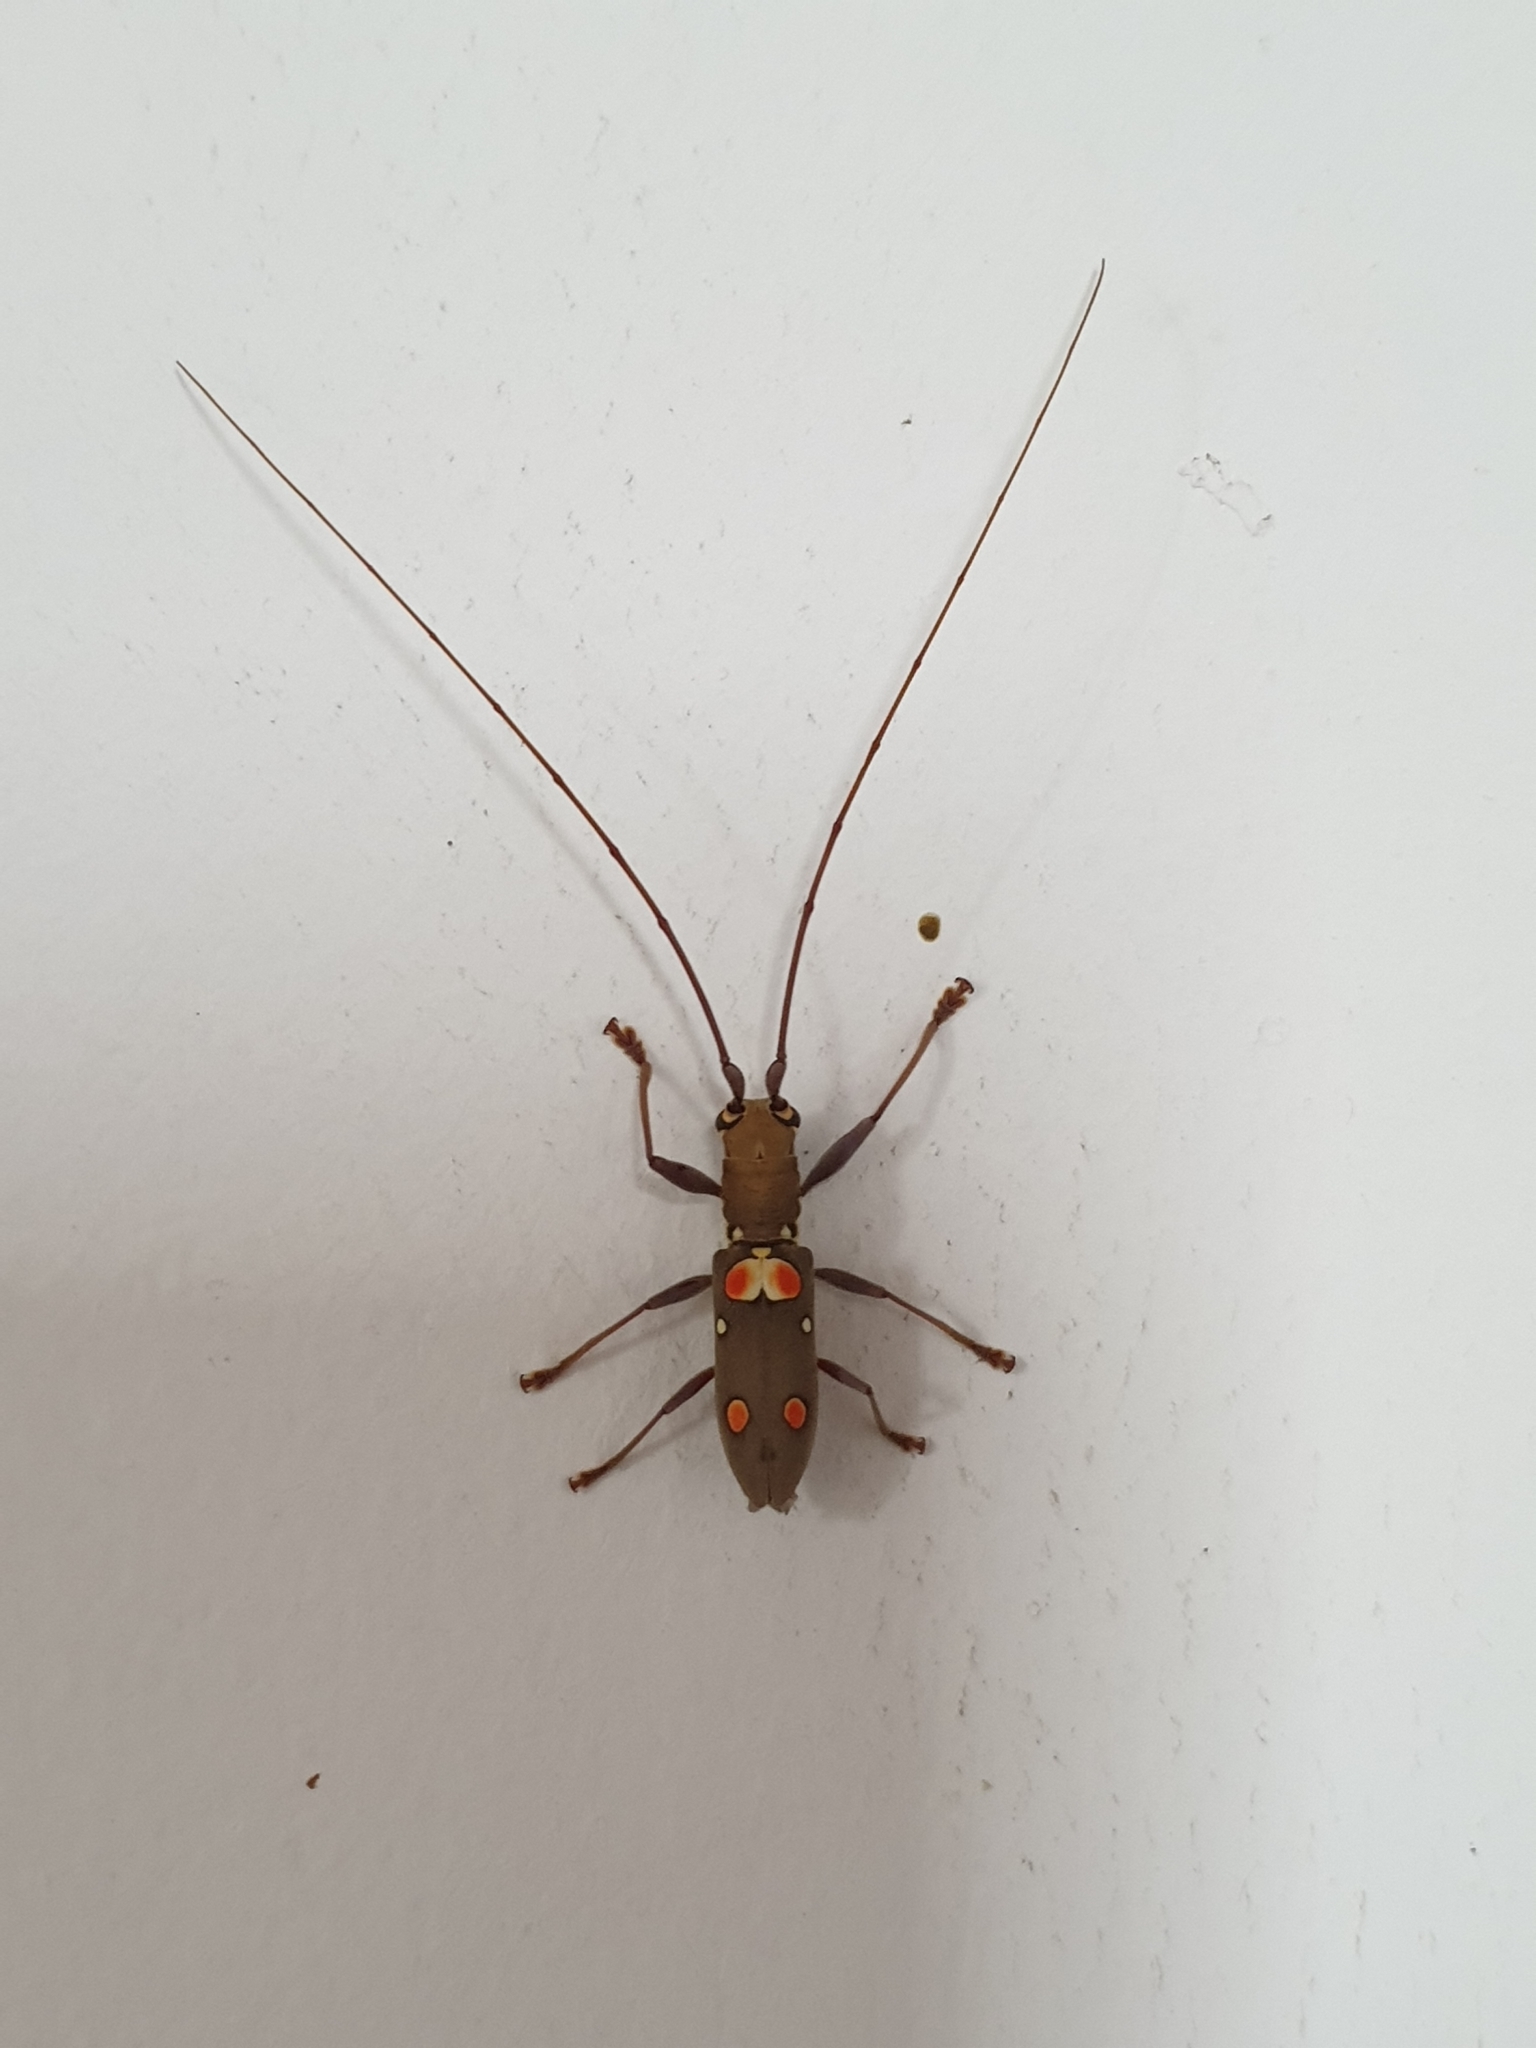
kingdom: Animalia
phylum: Arthropoda
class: Insecta
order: Coleoptera
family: Cerambycidae
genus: Olenecamptus
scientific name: Olenecamptus bilobus
